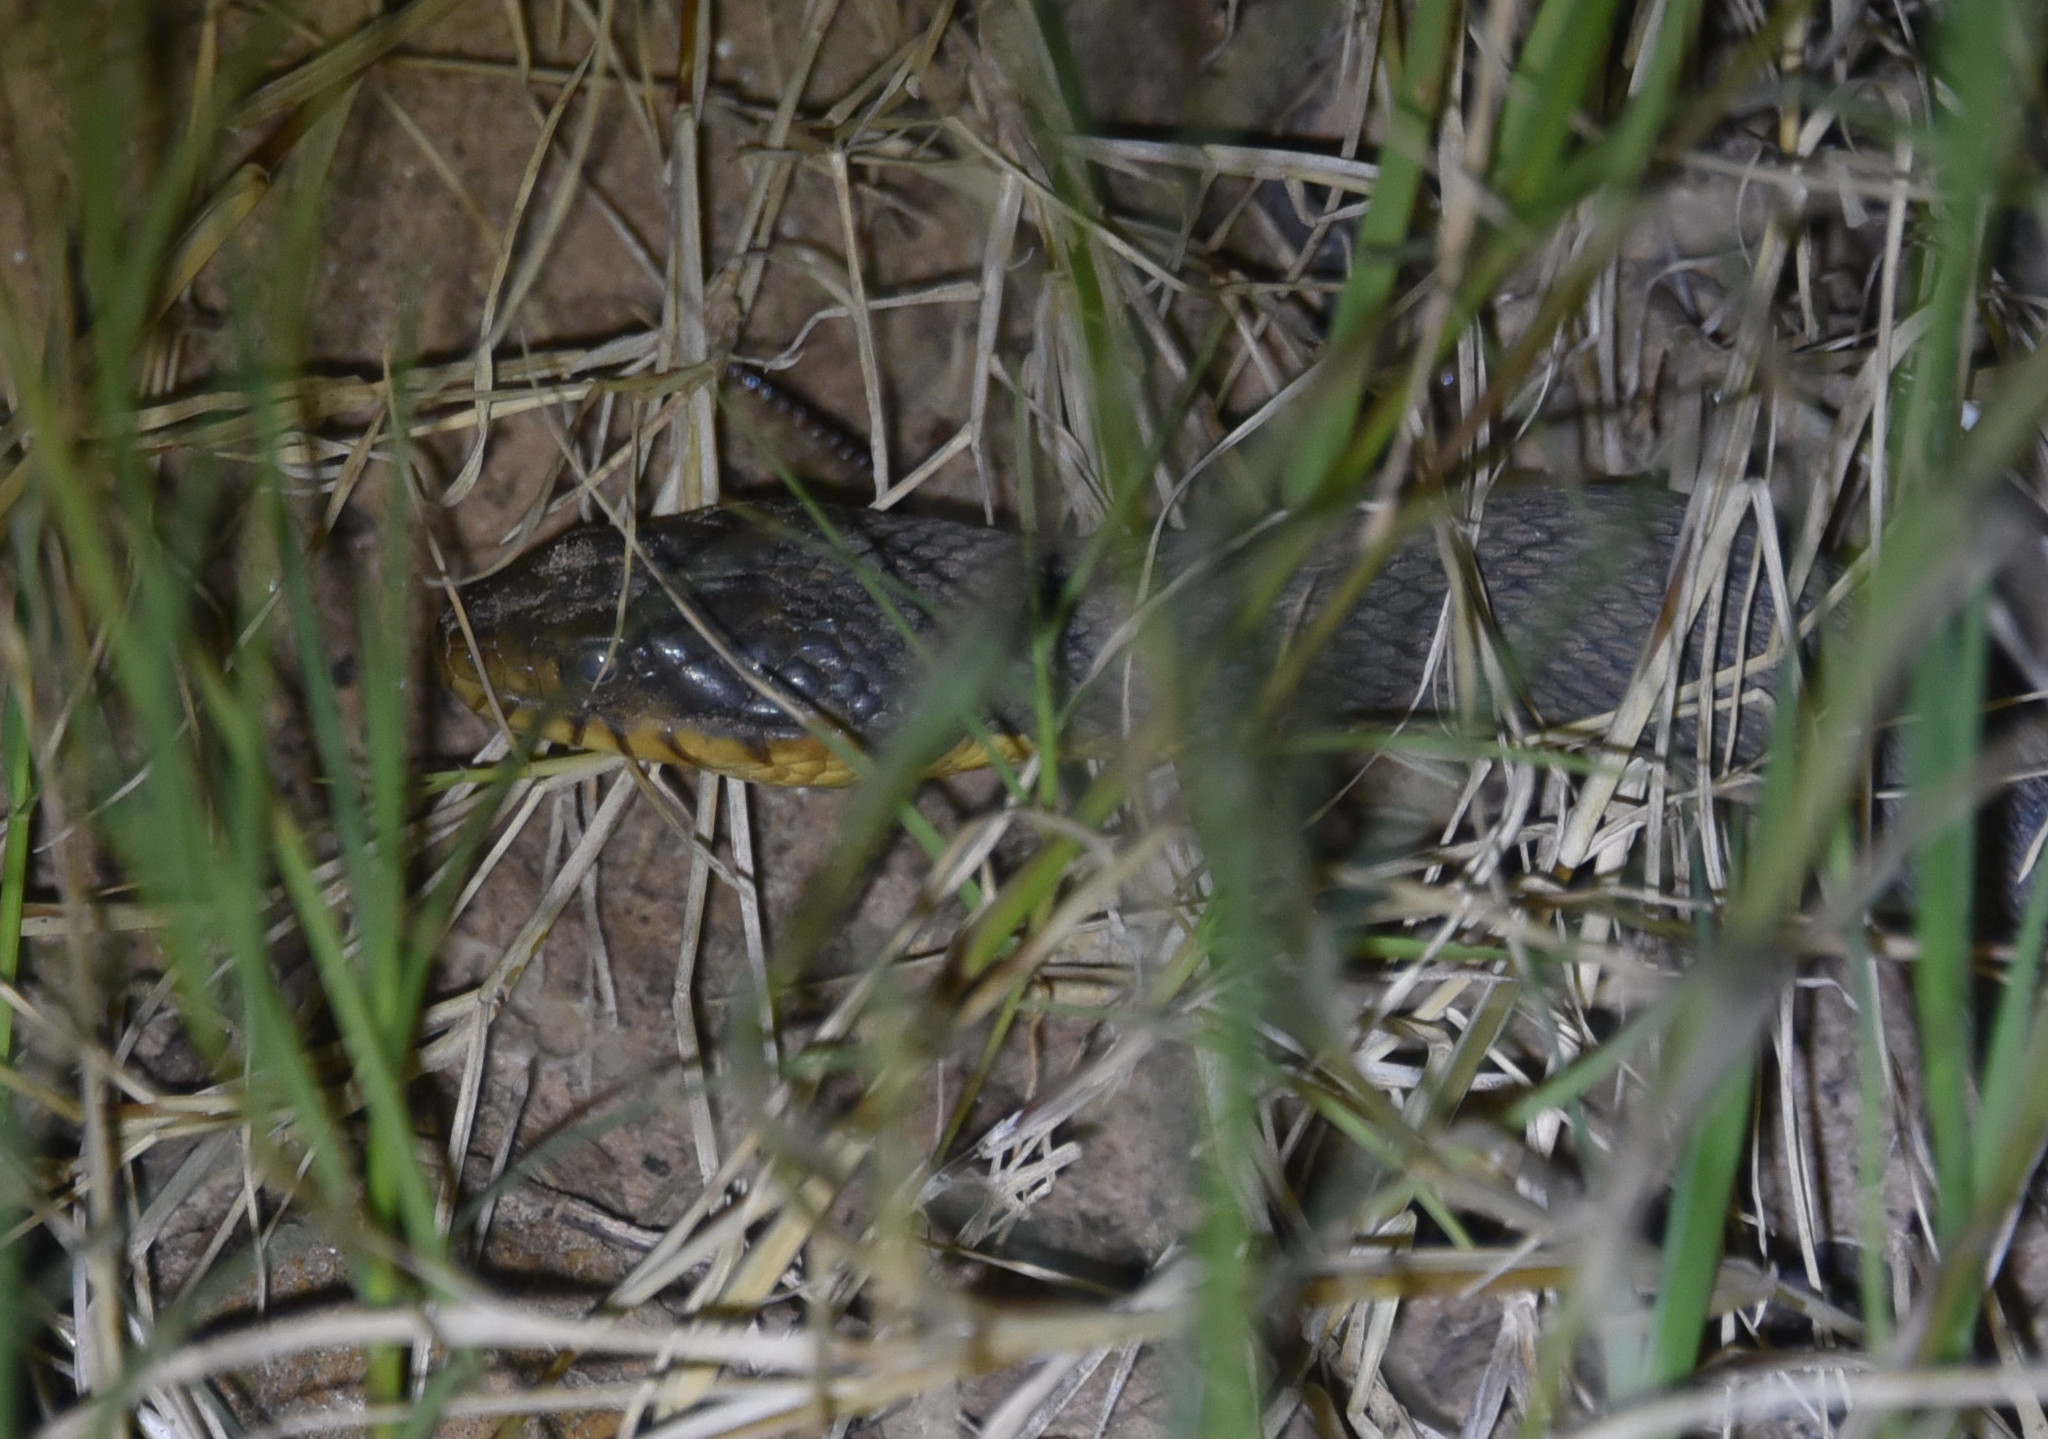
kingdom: Animalia
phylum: Chordata
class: Squamata
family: Colubridae
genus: Nerodia
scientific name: Nerodia erythrogaster
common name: Plainbelly water snake
